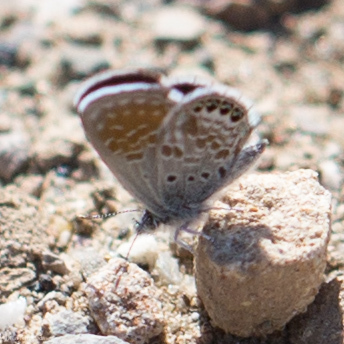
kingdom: Animalia
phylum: Arthropoda
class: Insecta
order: Lepidoptera
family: Lycaenidae
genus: Brephidium
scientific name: Brephidium exilis
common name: Pygmy blue
